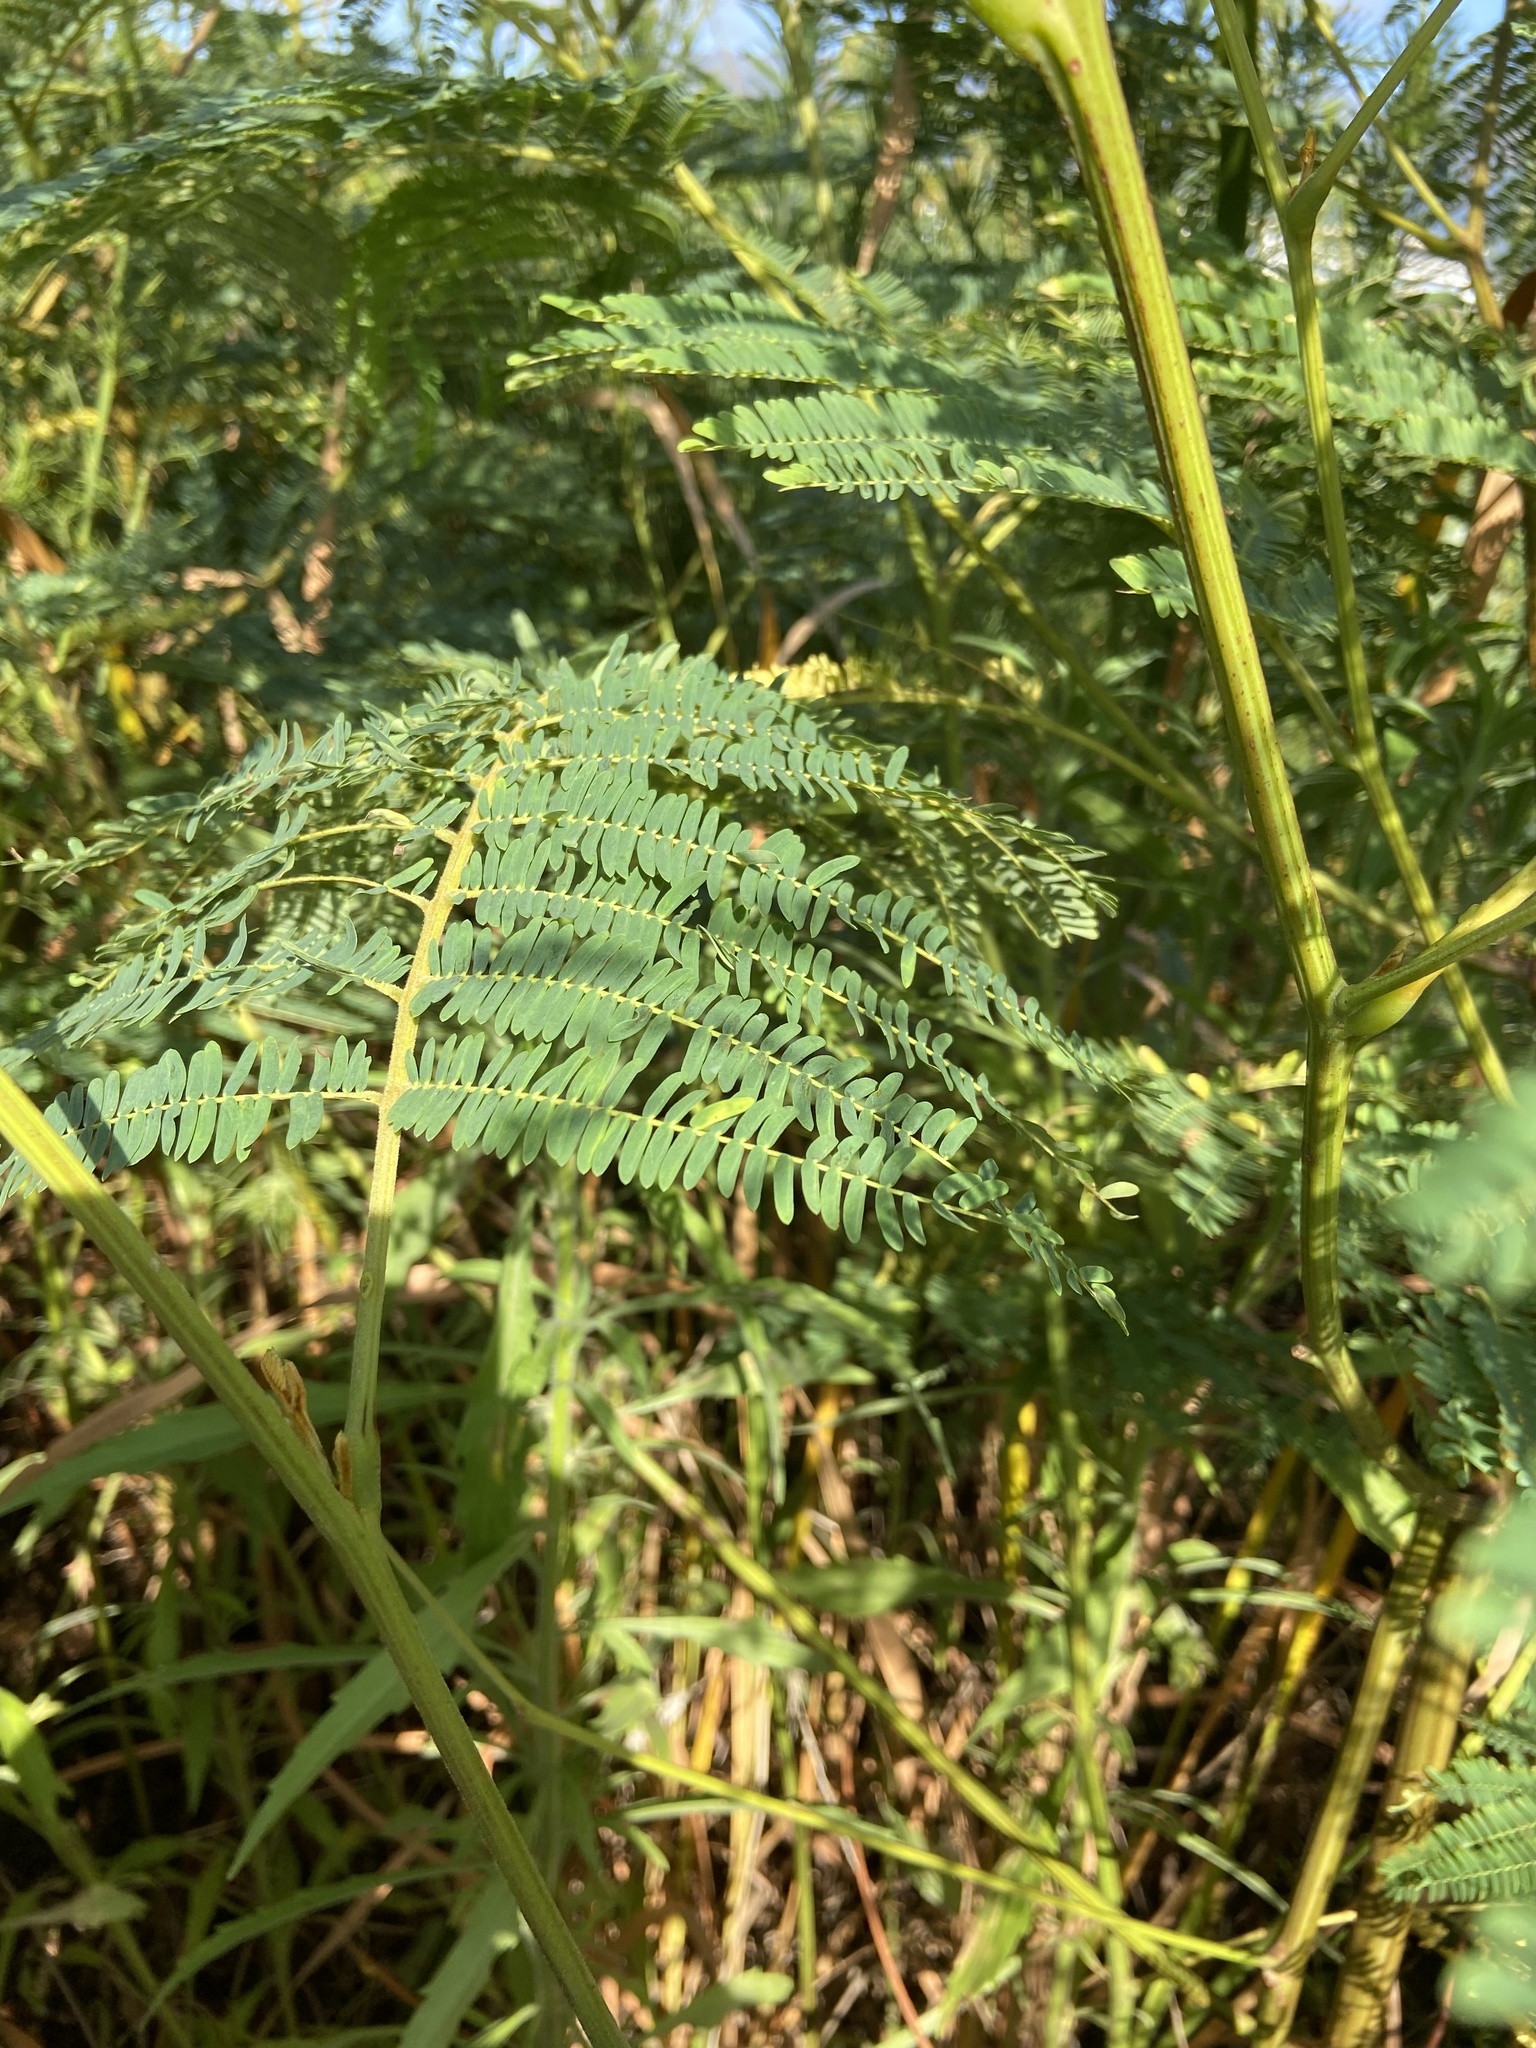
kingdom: Plantae
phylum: Tracheophyta
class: Magnoliopsida
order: Fabales
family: Fabaceae
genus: Paraserianthes
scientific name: Paraserianthes lophantha
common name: Plume albizia
